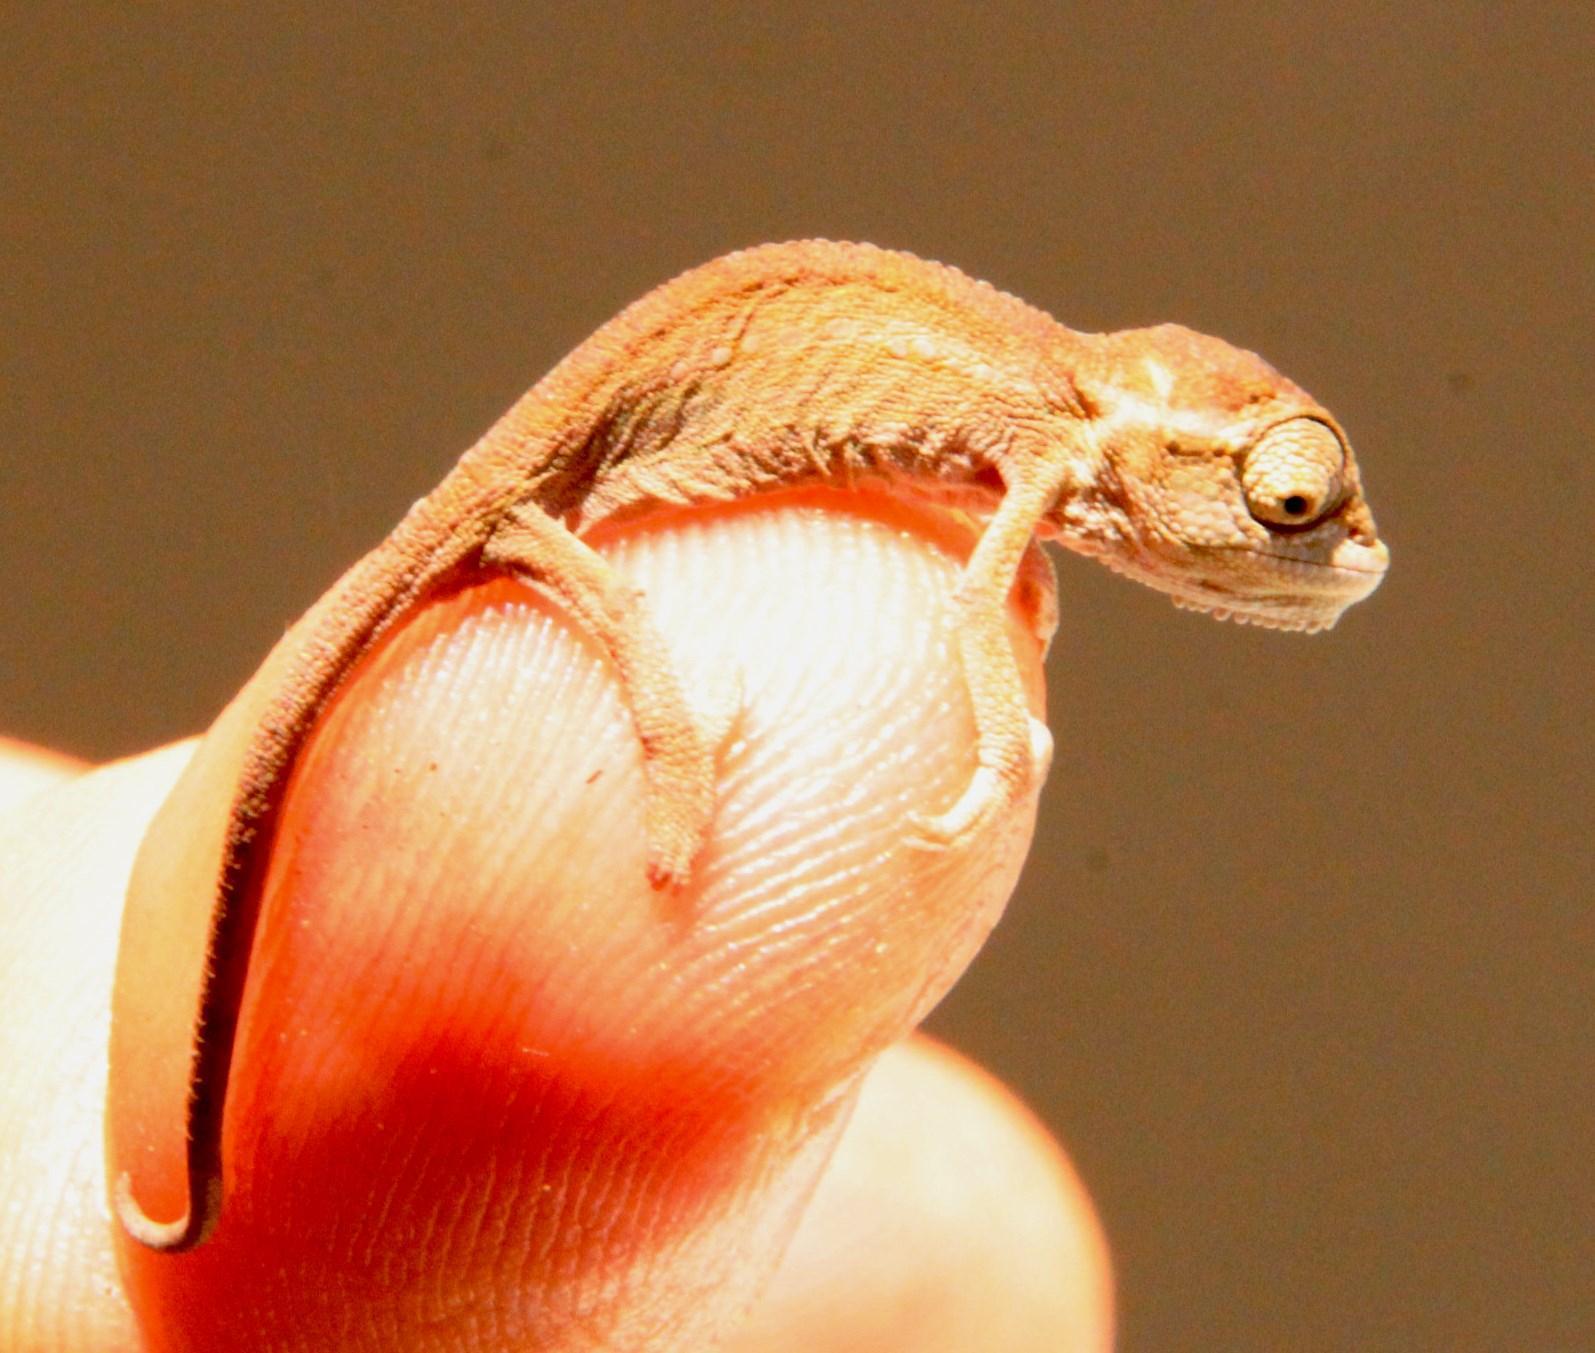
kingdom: Animalia
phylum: Chordata
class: Squamata
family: Chamaeleonidae
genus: Bradypodion
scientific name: Bradypodion pumilum
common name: Cape dwarf chameleon
